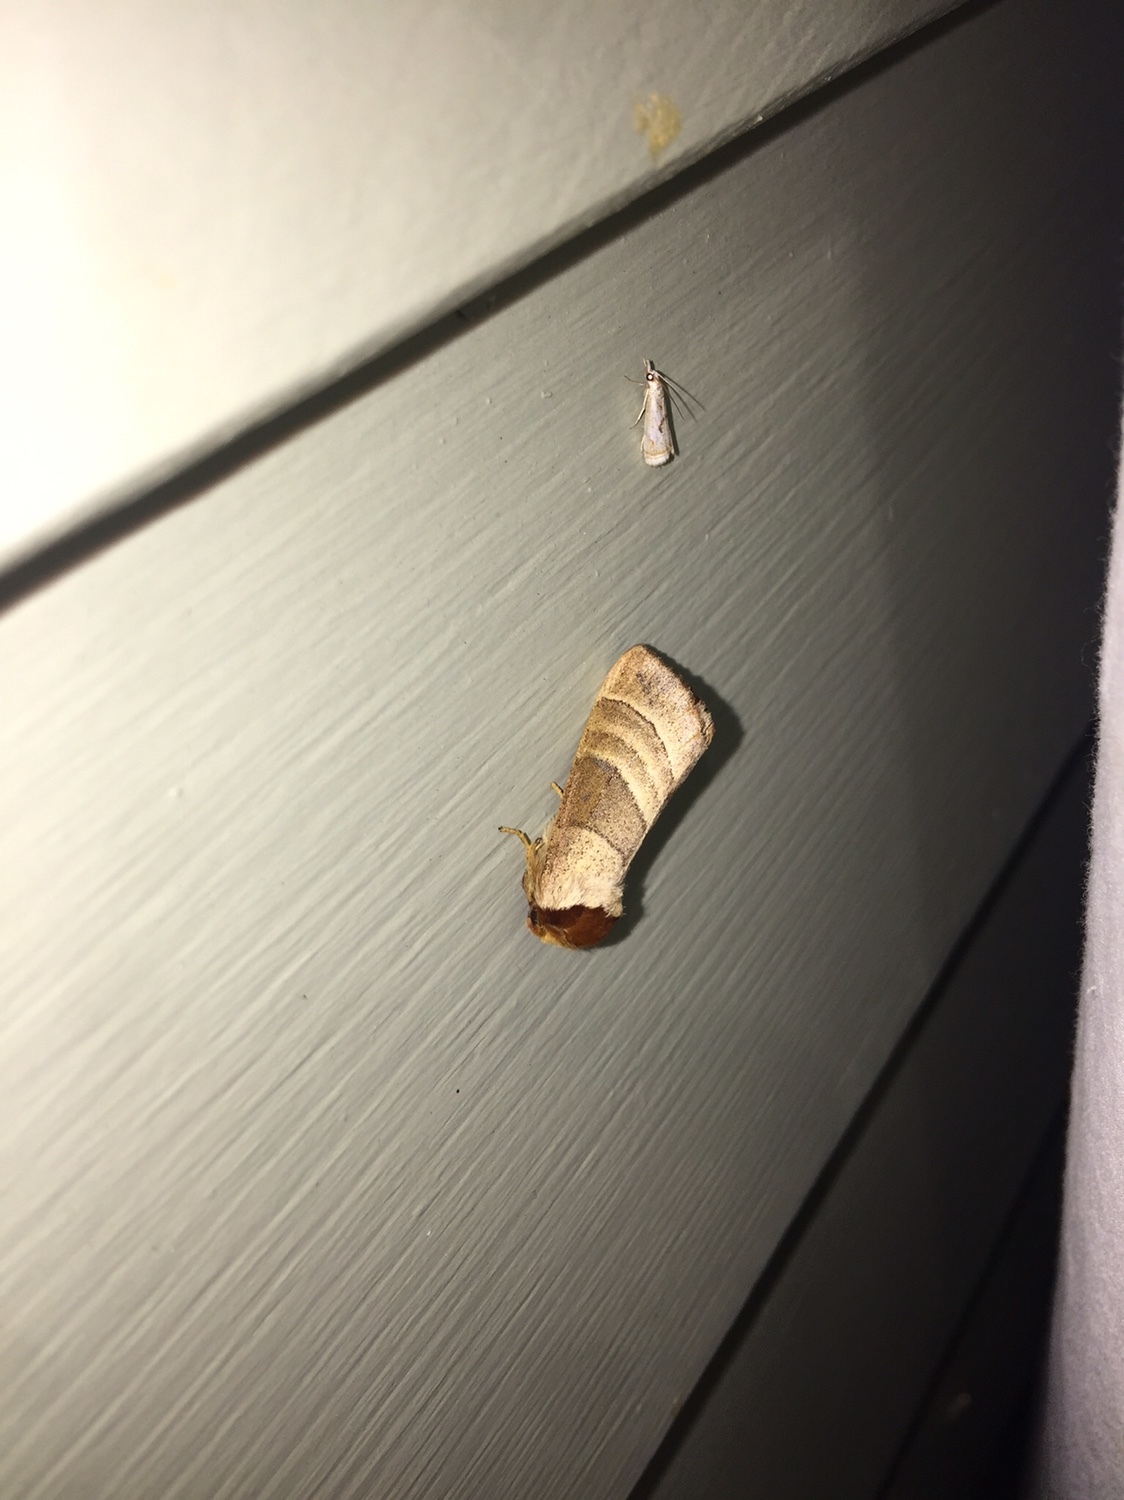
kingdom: Animalia
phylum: Arthropoda
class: Insecta
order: Lepidoptera
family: Notodontidae
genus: Datana
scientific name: Datana integerrima
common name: Walnut caterpillar
